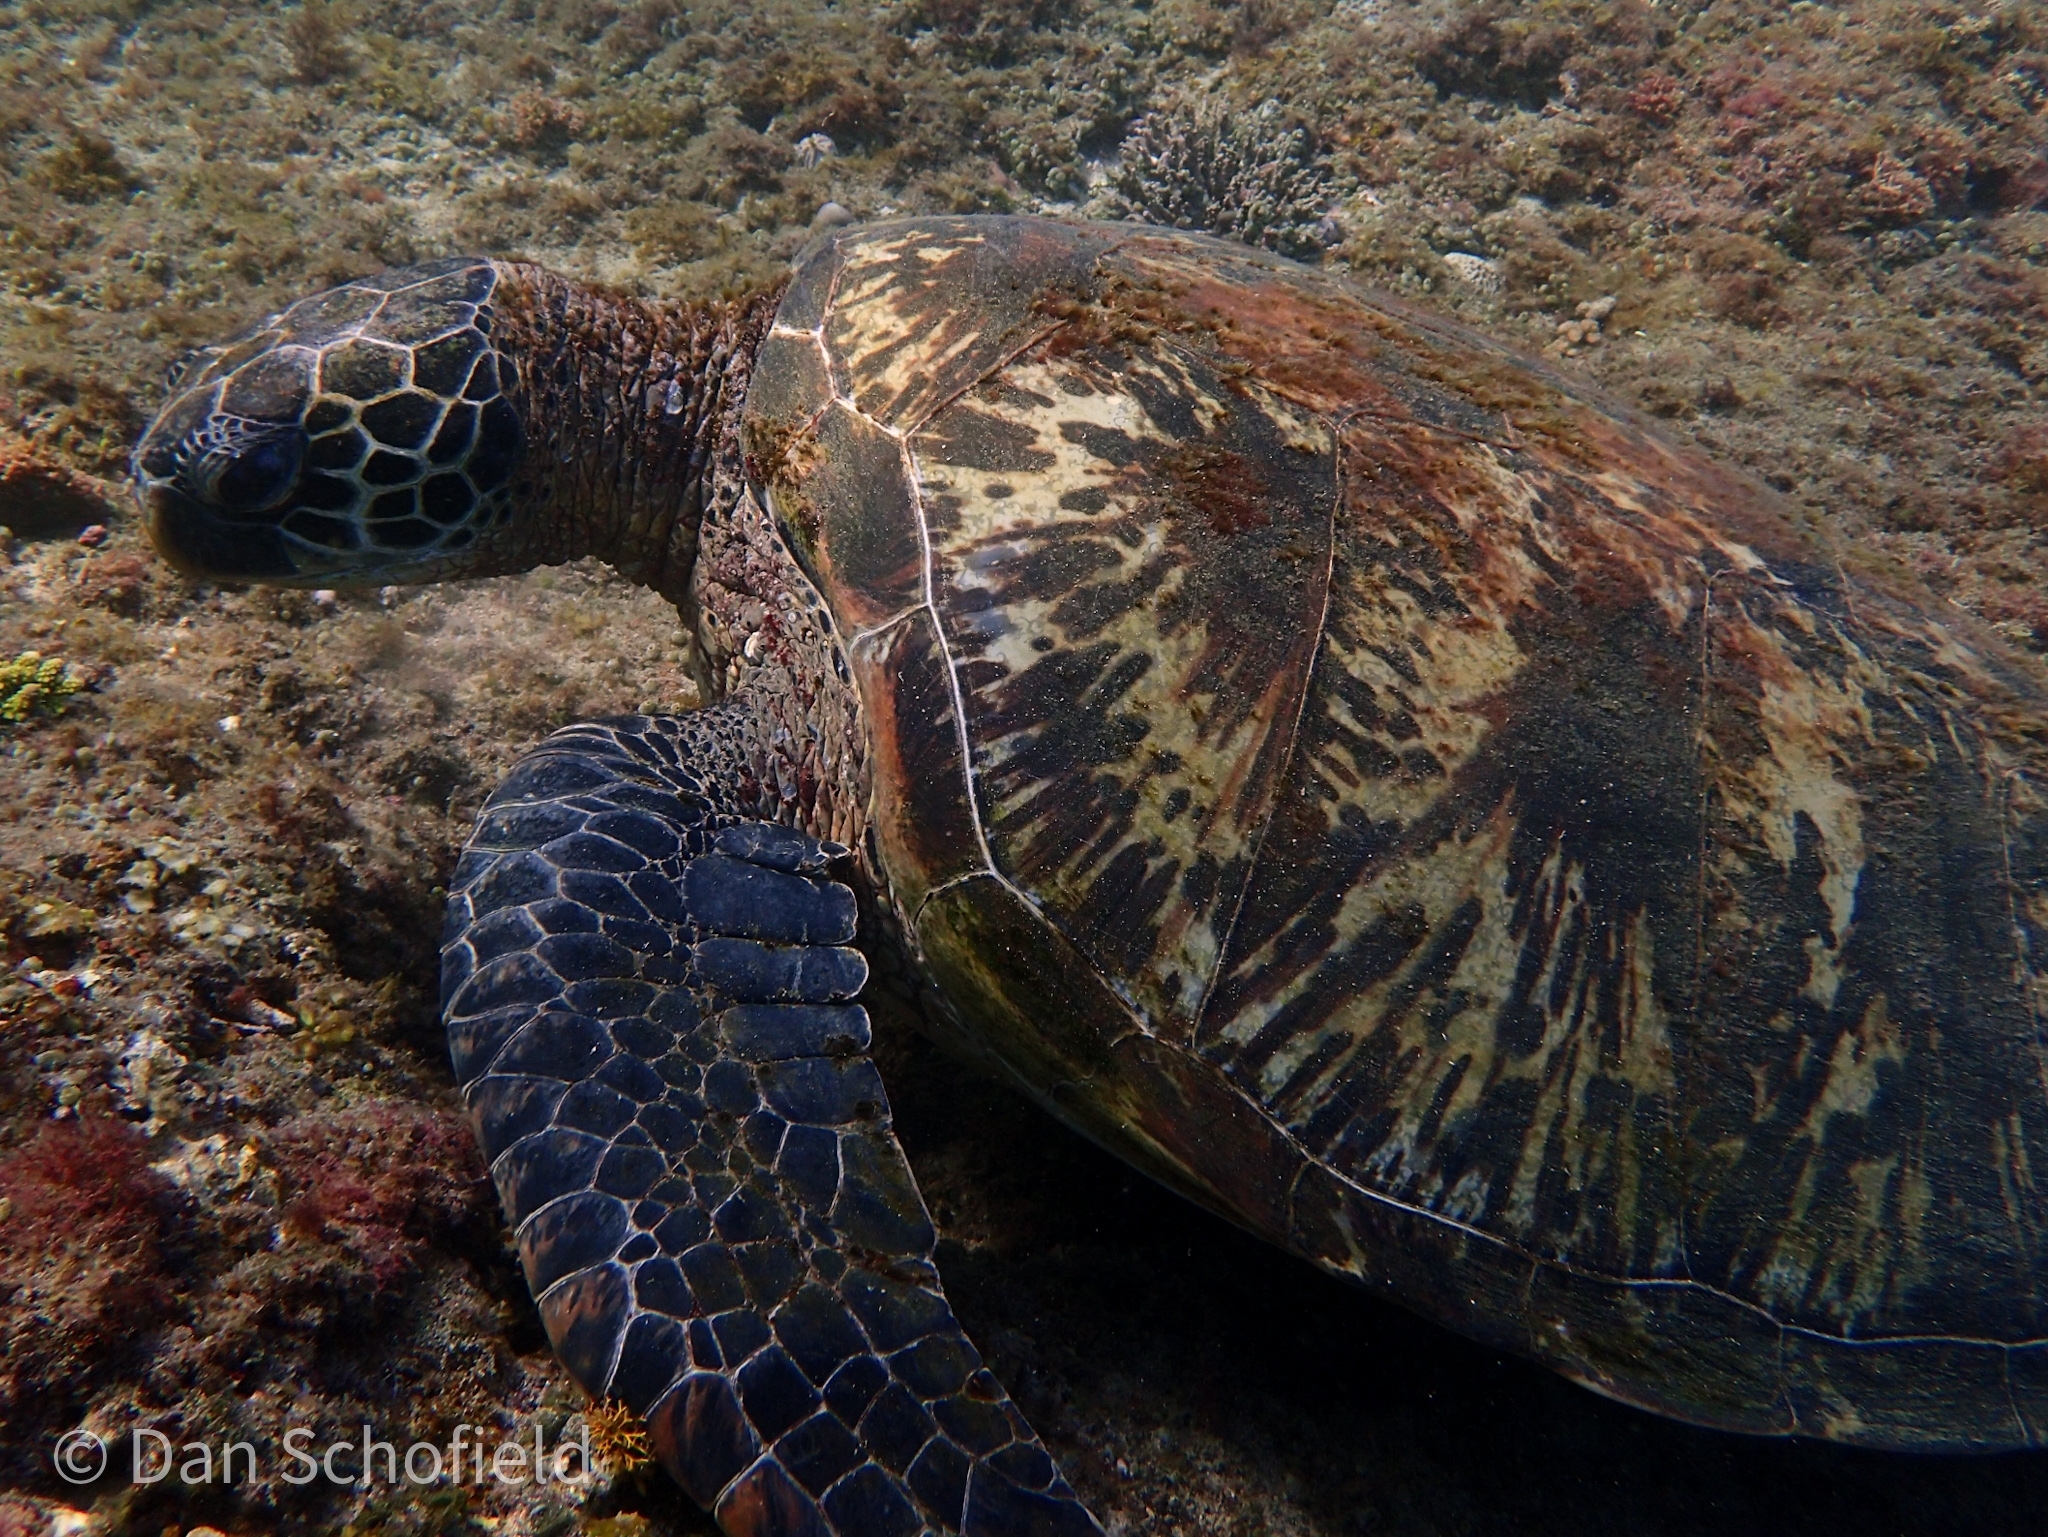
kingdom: Animalia
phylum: Chordata
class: Testudines
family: Cheloniidae
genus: Chelonia
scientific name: Chelonia mydas
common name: Green turtle
